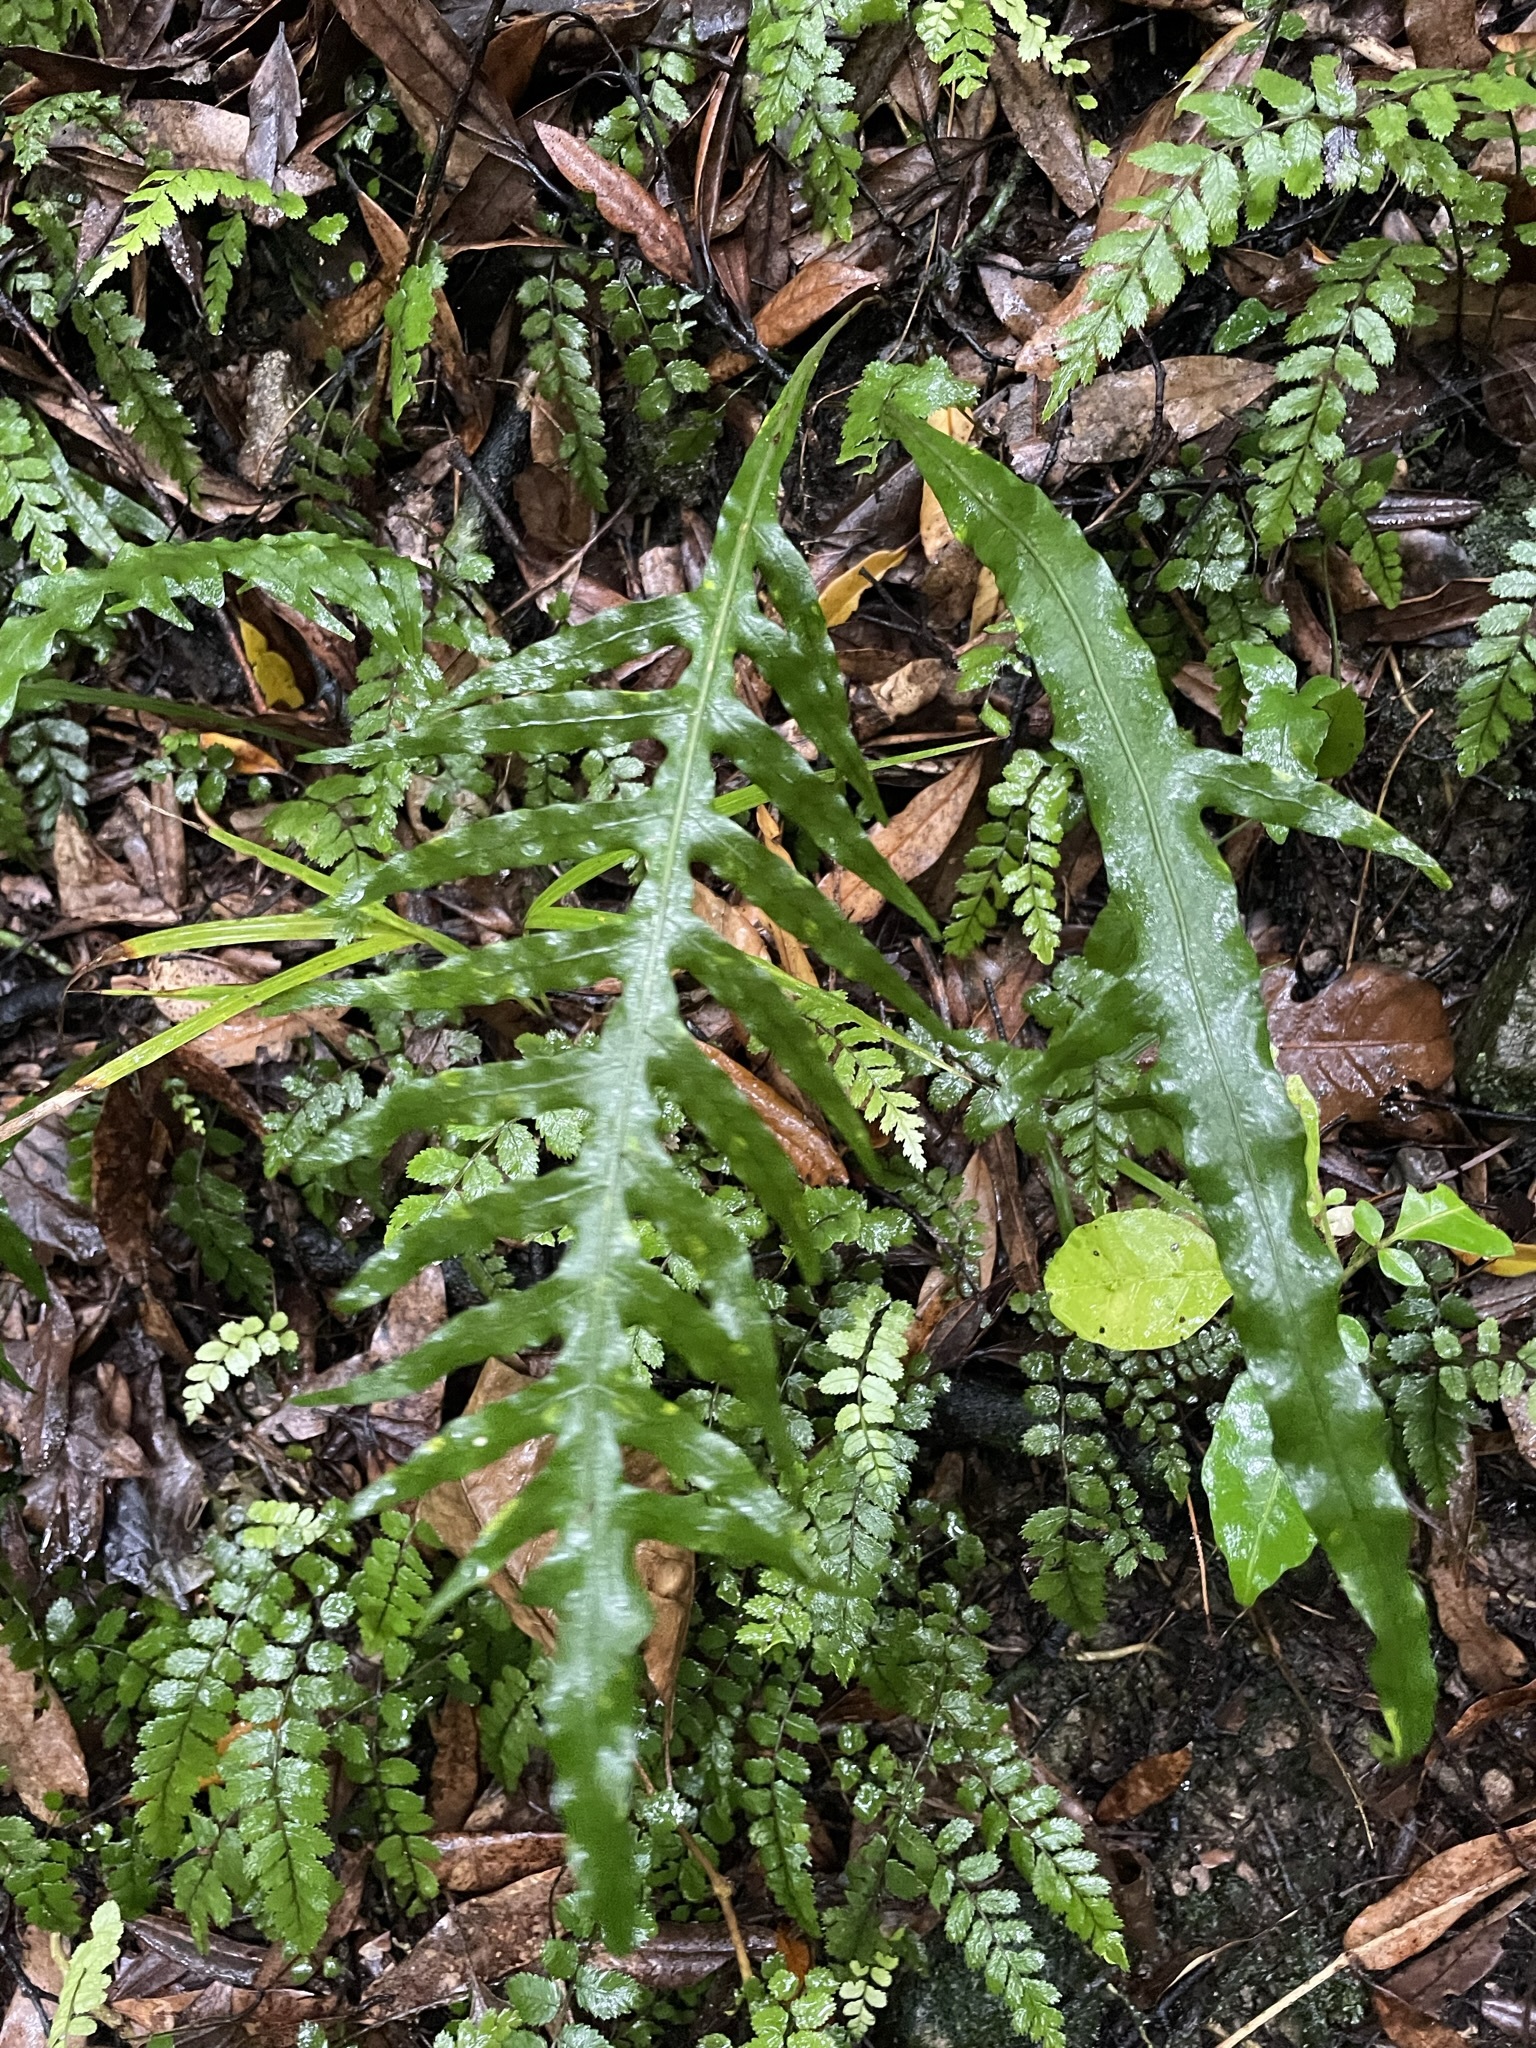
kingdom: Plantae
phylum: Tracheophyta
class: Polypodiopsida
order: Polypodiales
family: Polypodiaceae
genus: Lecanopteris
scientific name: Lecanopteris scandens
